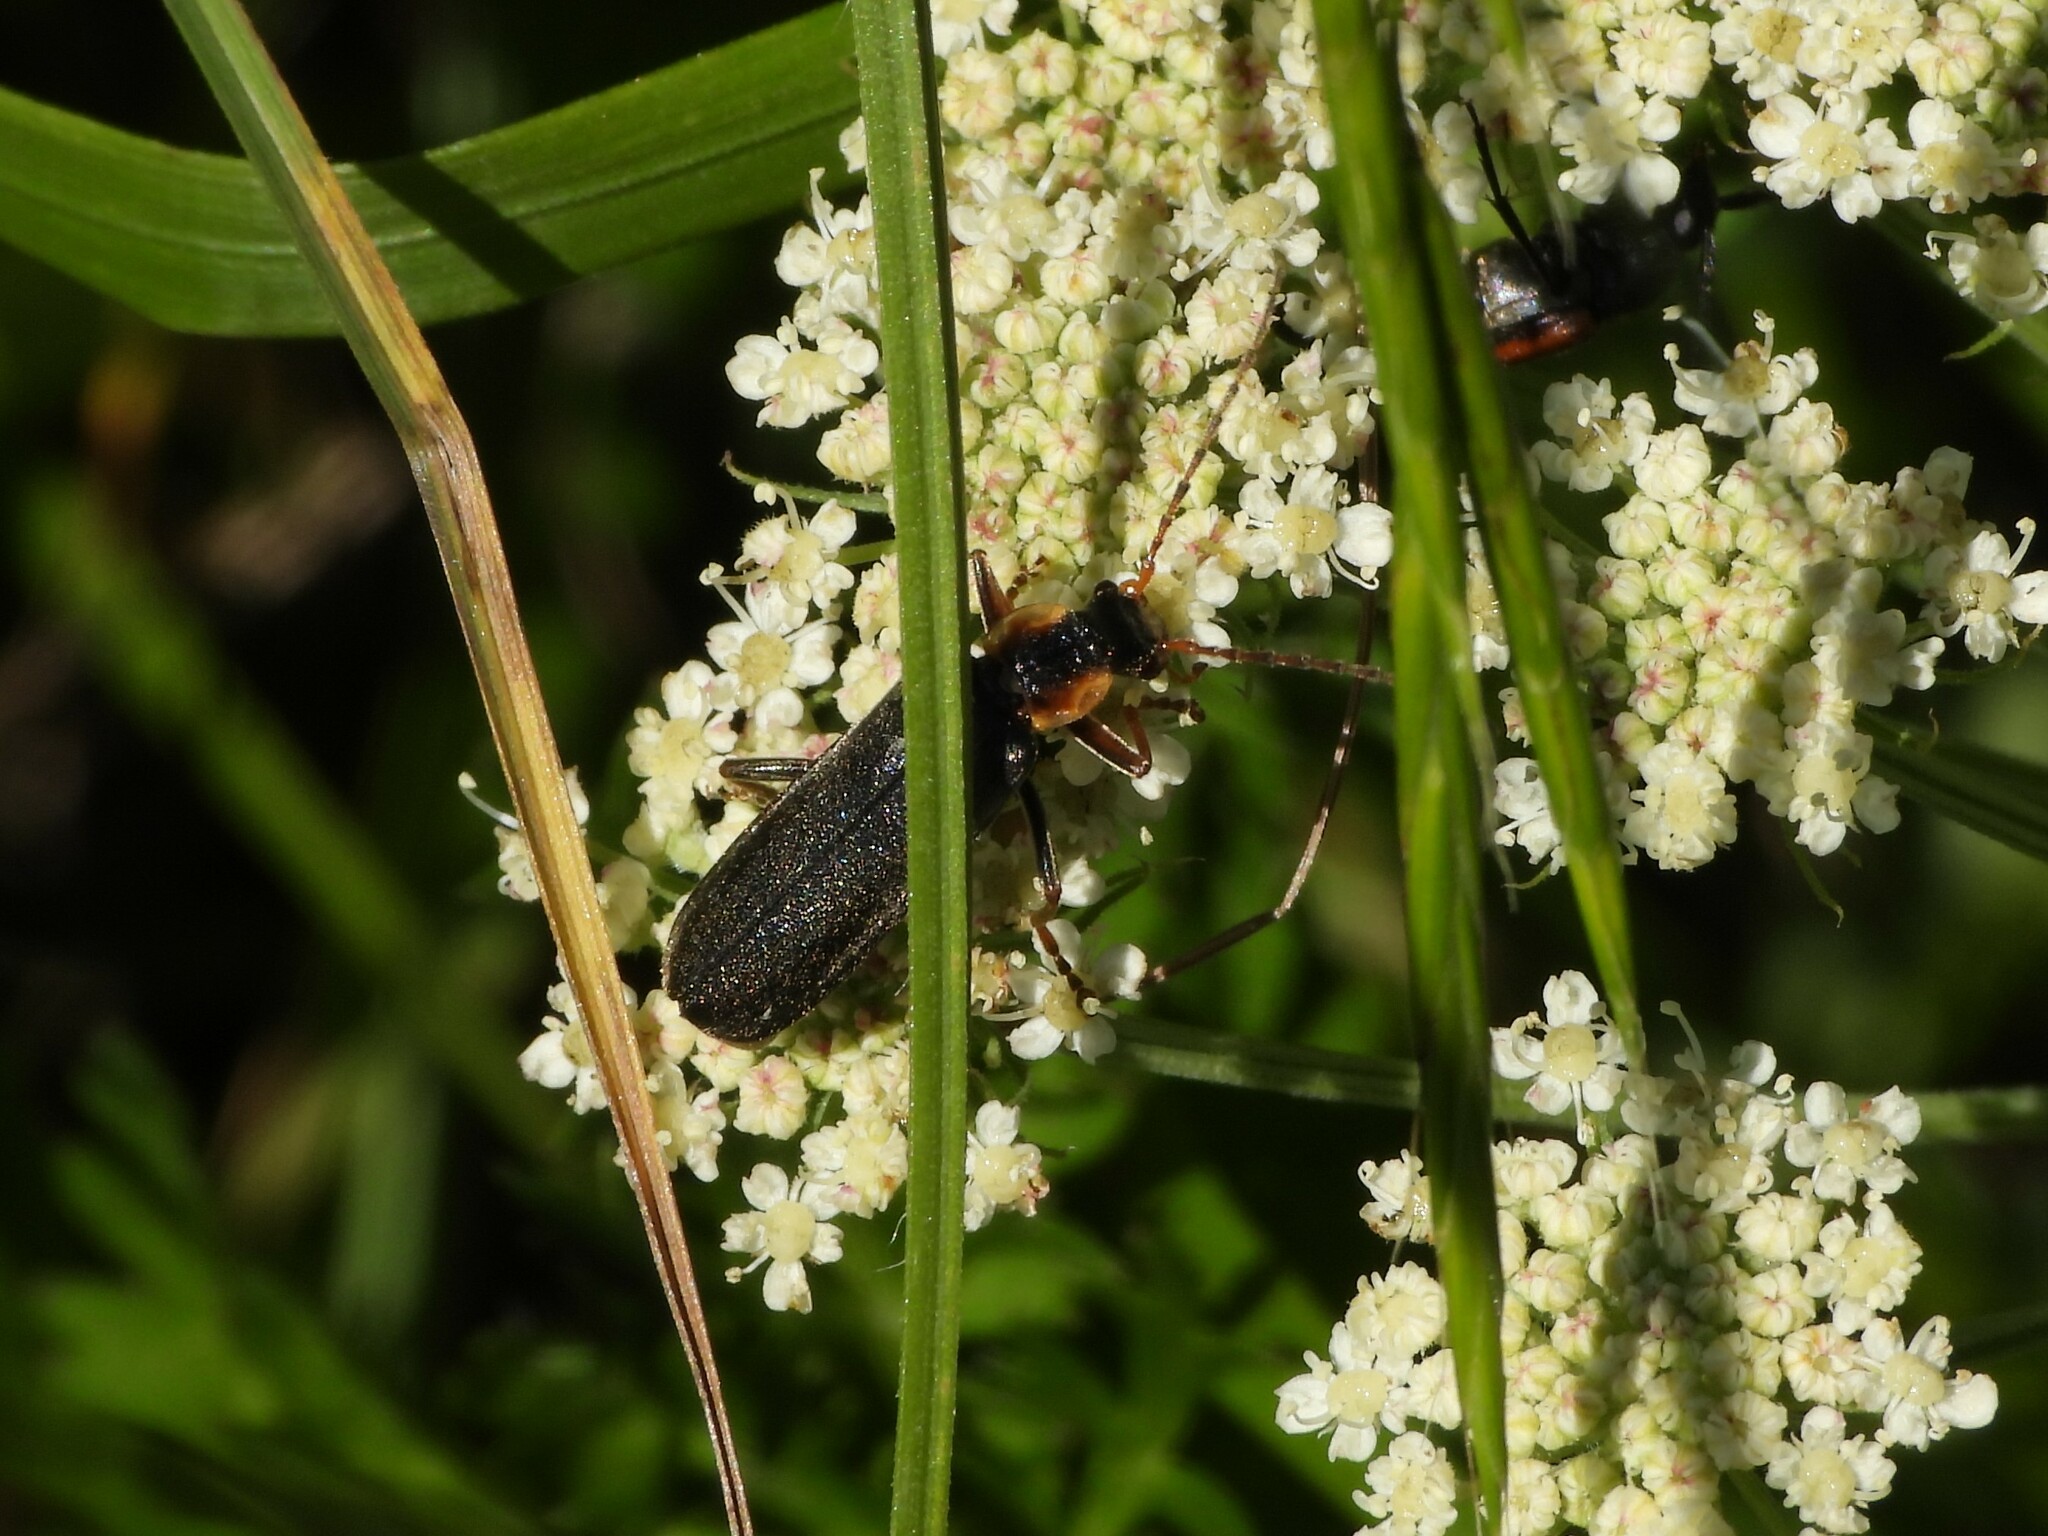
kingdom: Animalia
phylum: Arthropoda
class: Insecta
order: Coleoptera
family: Cantharidae
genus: Podabrus
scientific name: Podabrus alpinus
